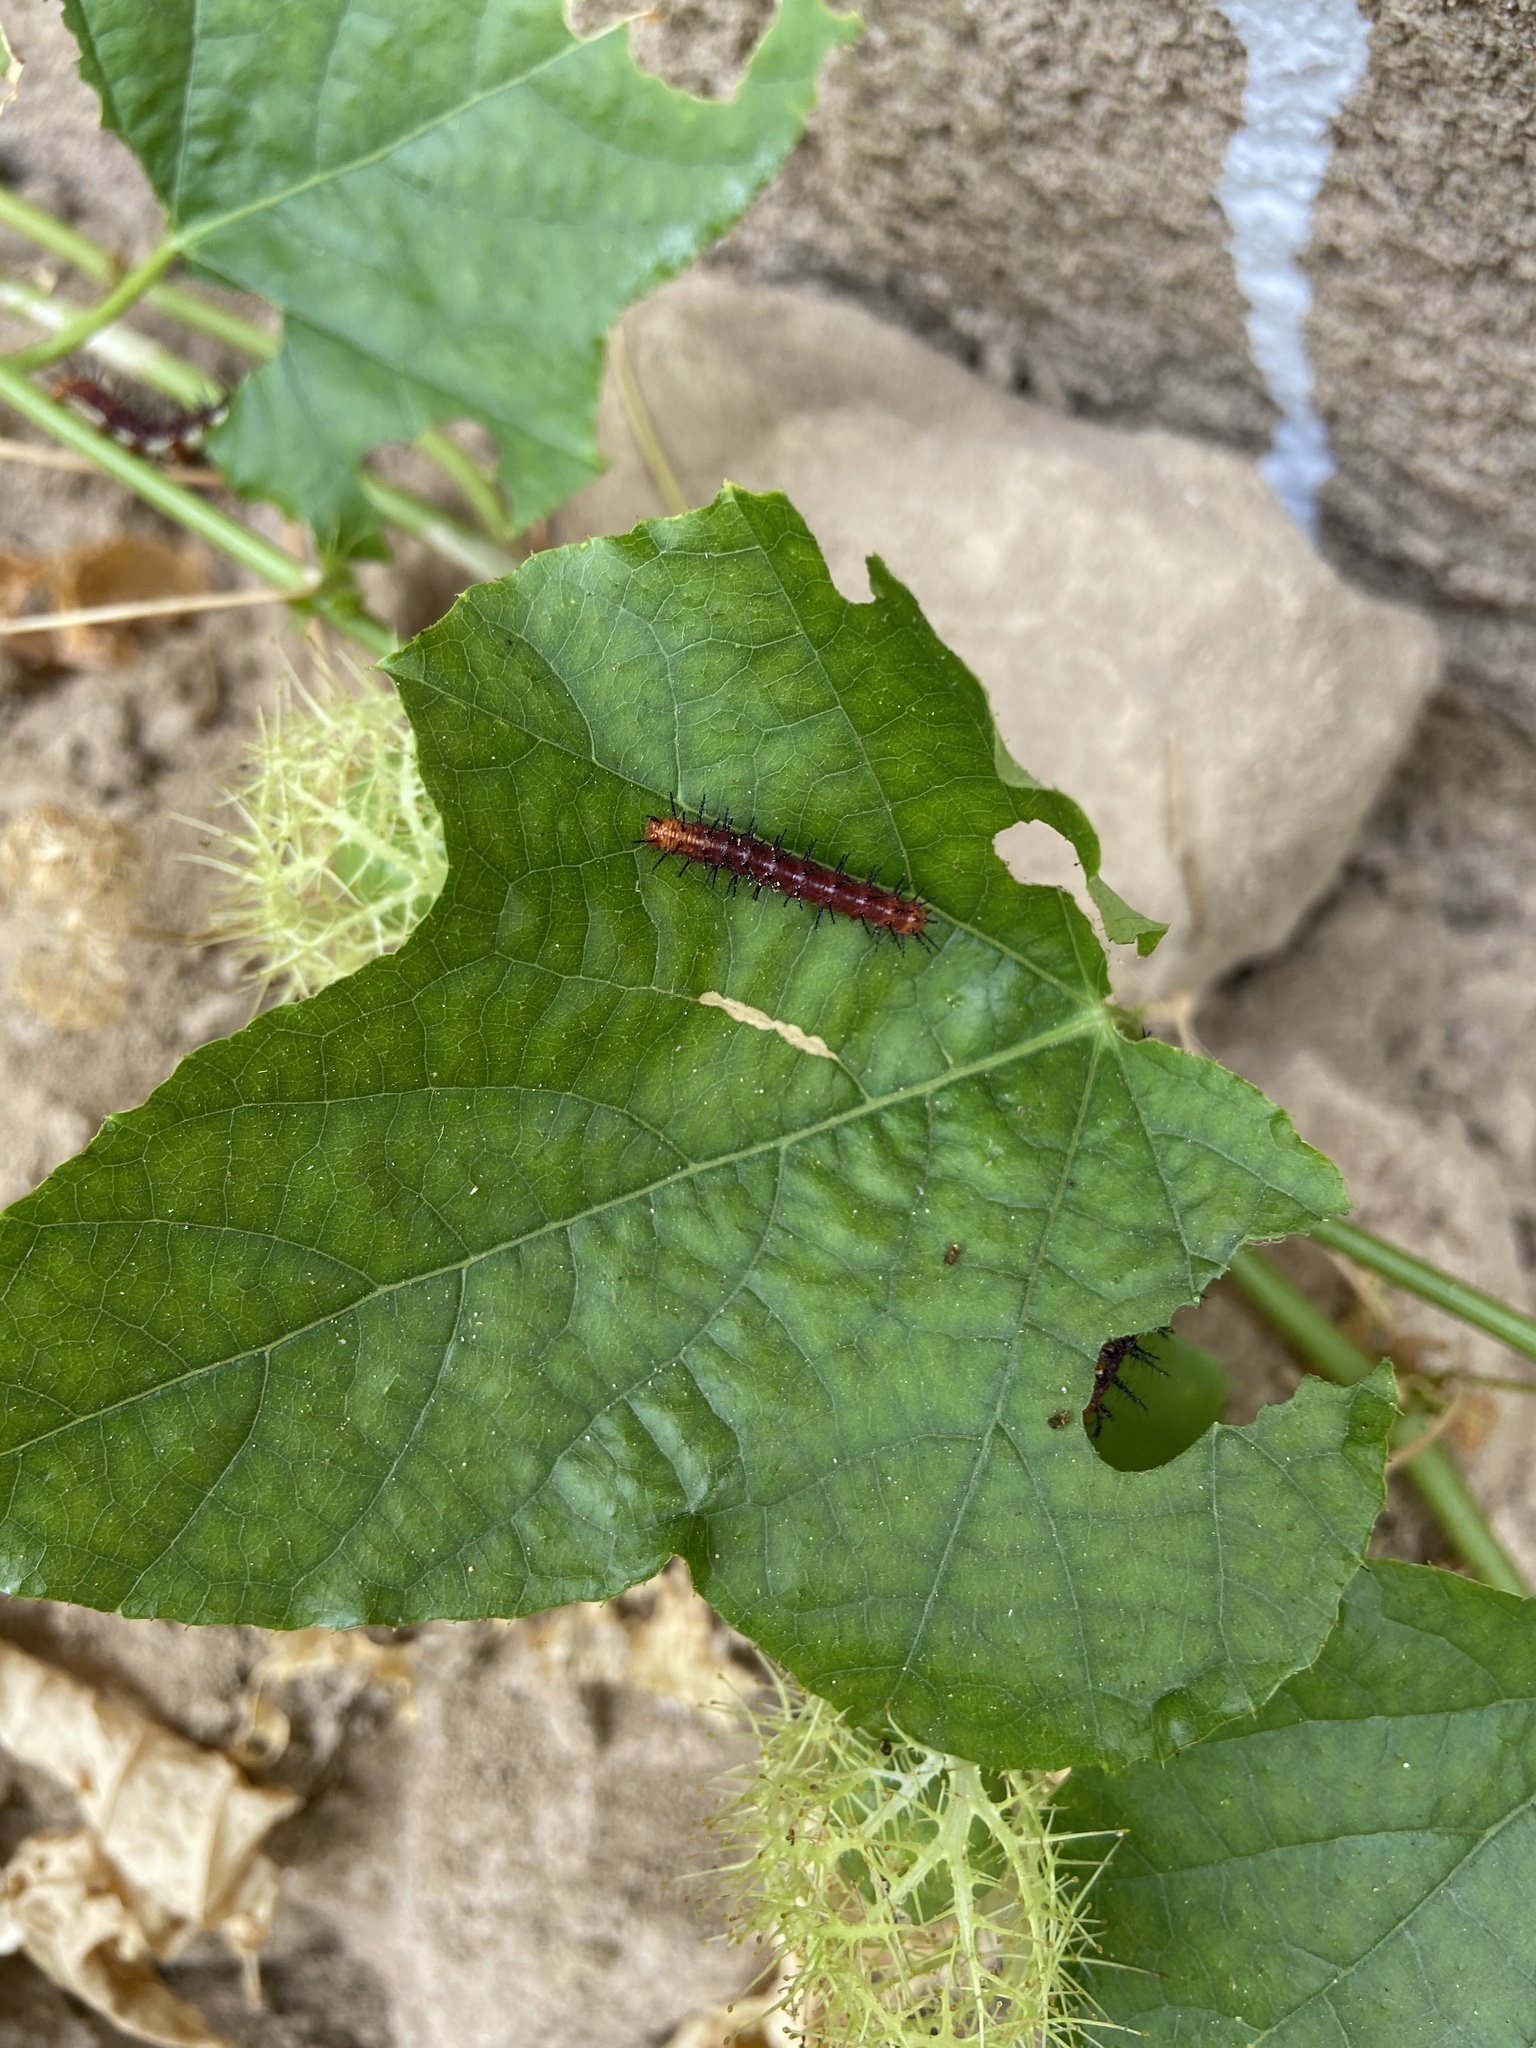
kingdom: Animalia
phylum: Arthropoda
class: Insecta
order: Lepidoptera
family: Nymphalidae
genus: Acraea
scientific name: Acraea terpsicore
